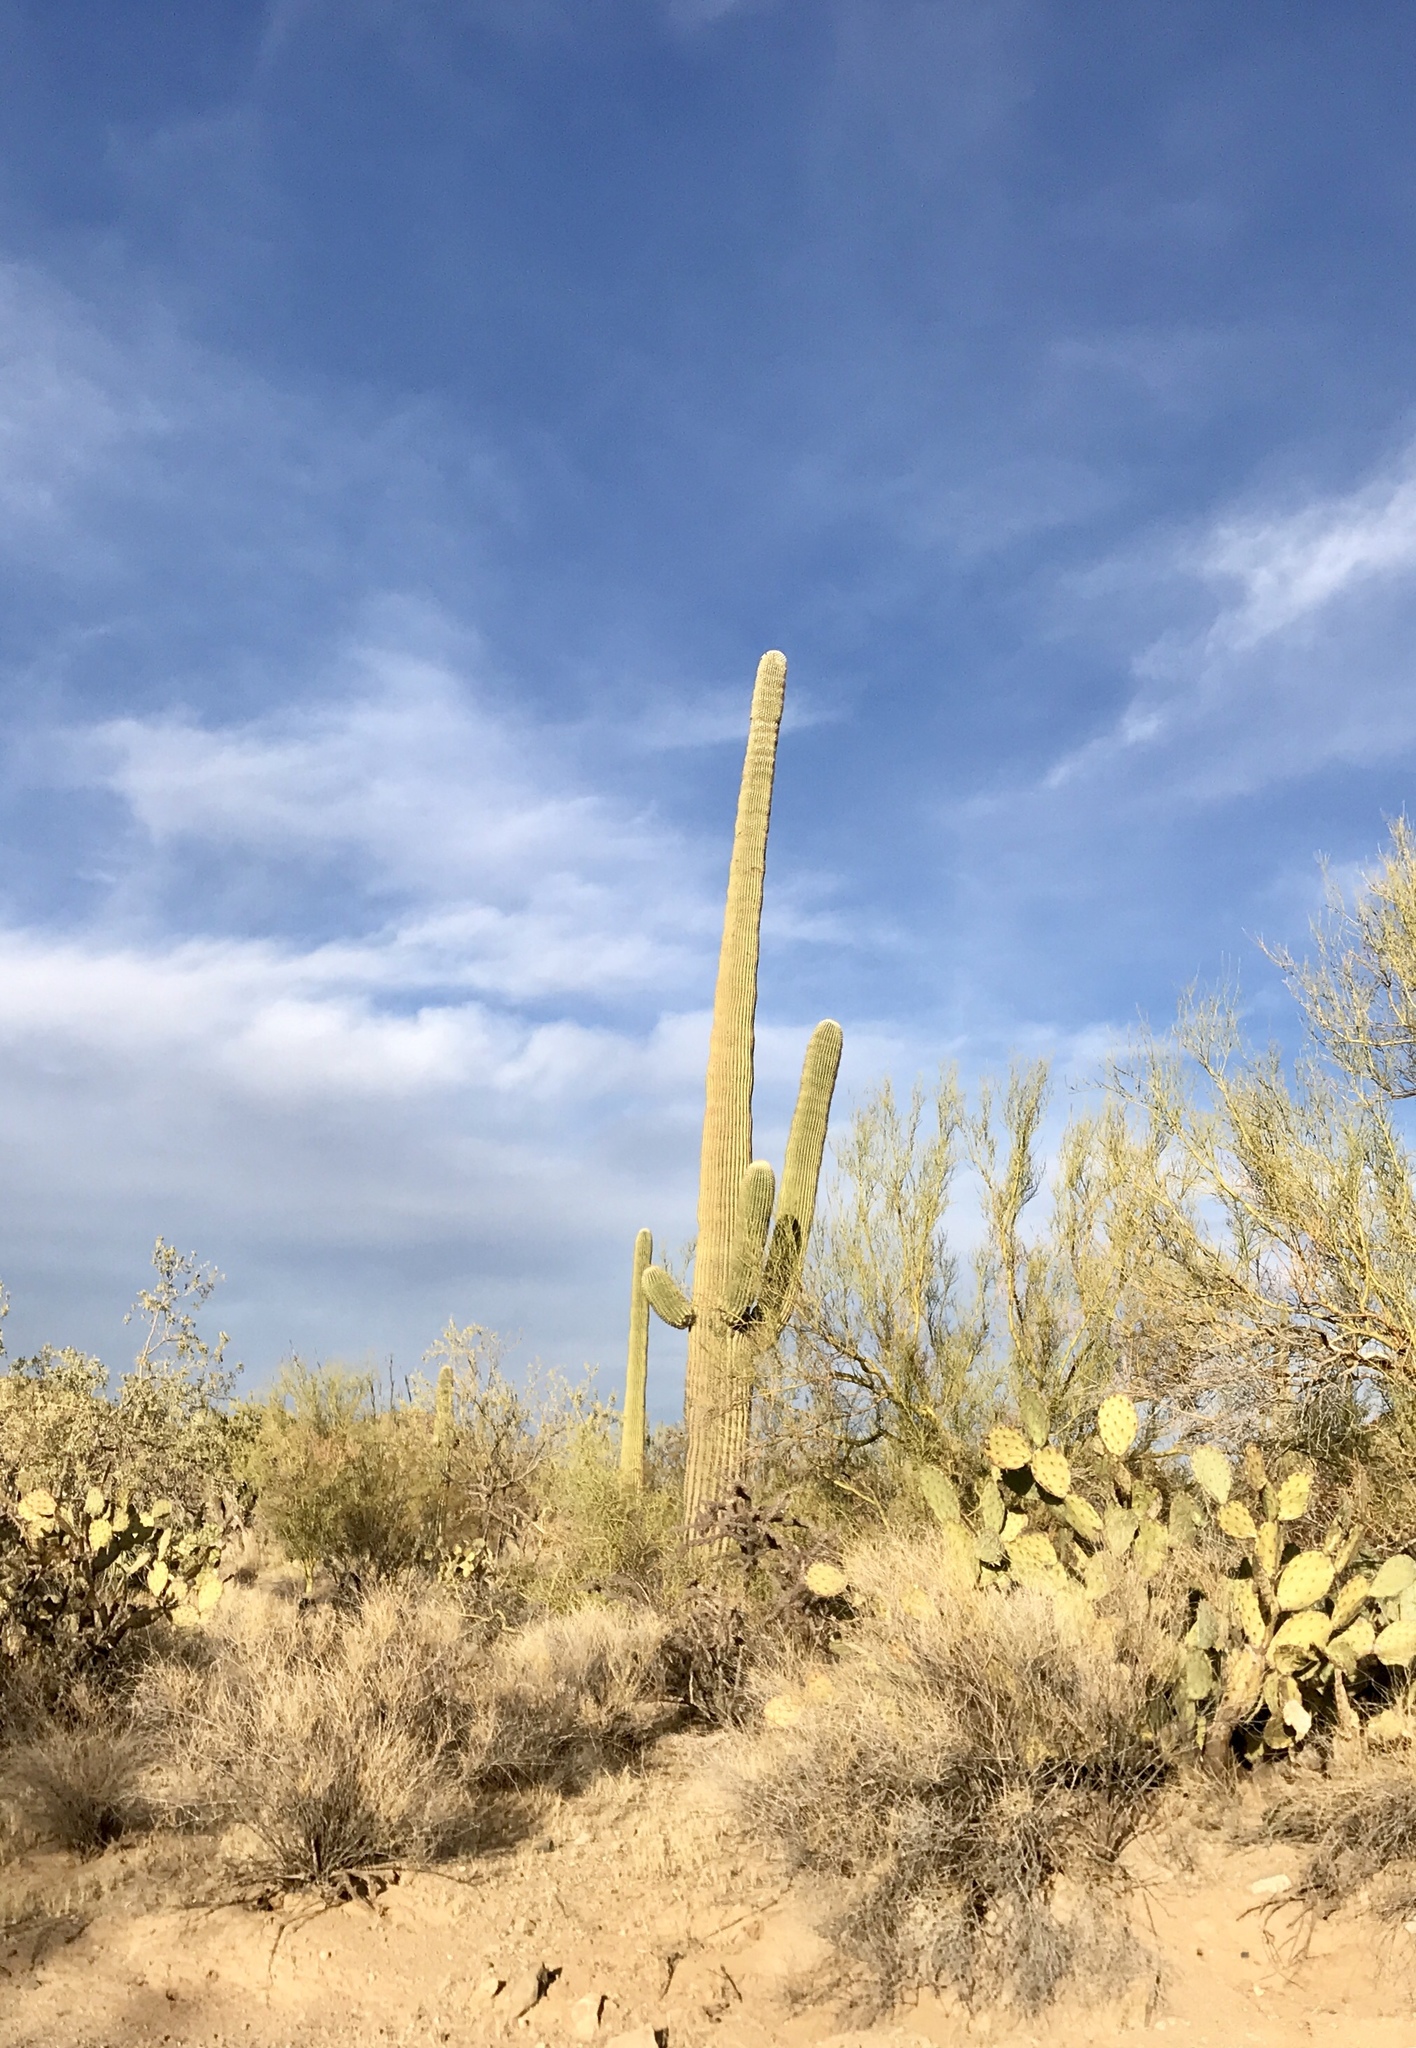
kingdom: Plantae
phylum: Tracheophyta
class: Magnoliopsida
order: Caryophyllales
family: Cactaceae
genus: Carnegiea
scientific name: Carnegiea gigantea
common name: Saguaro
